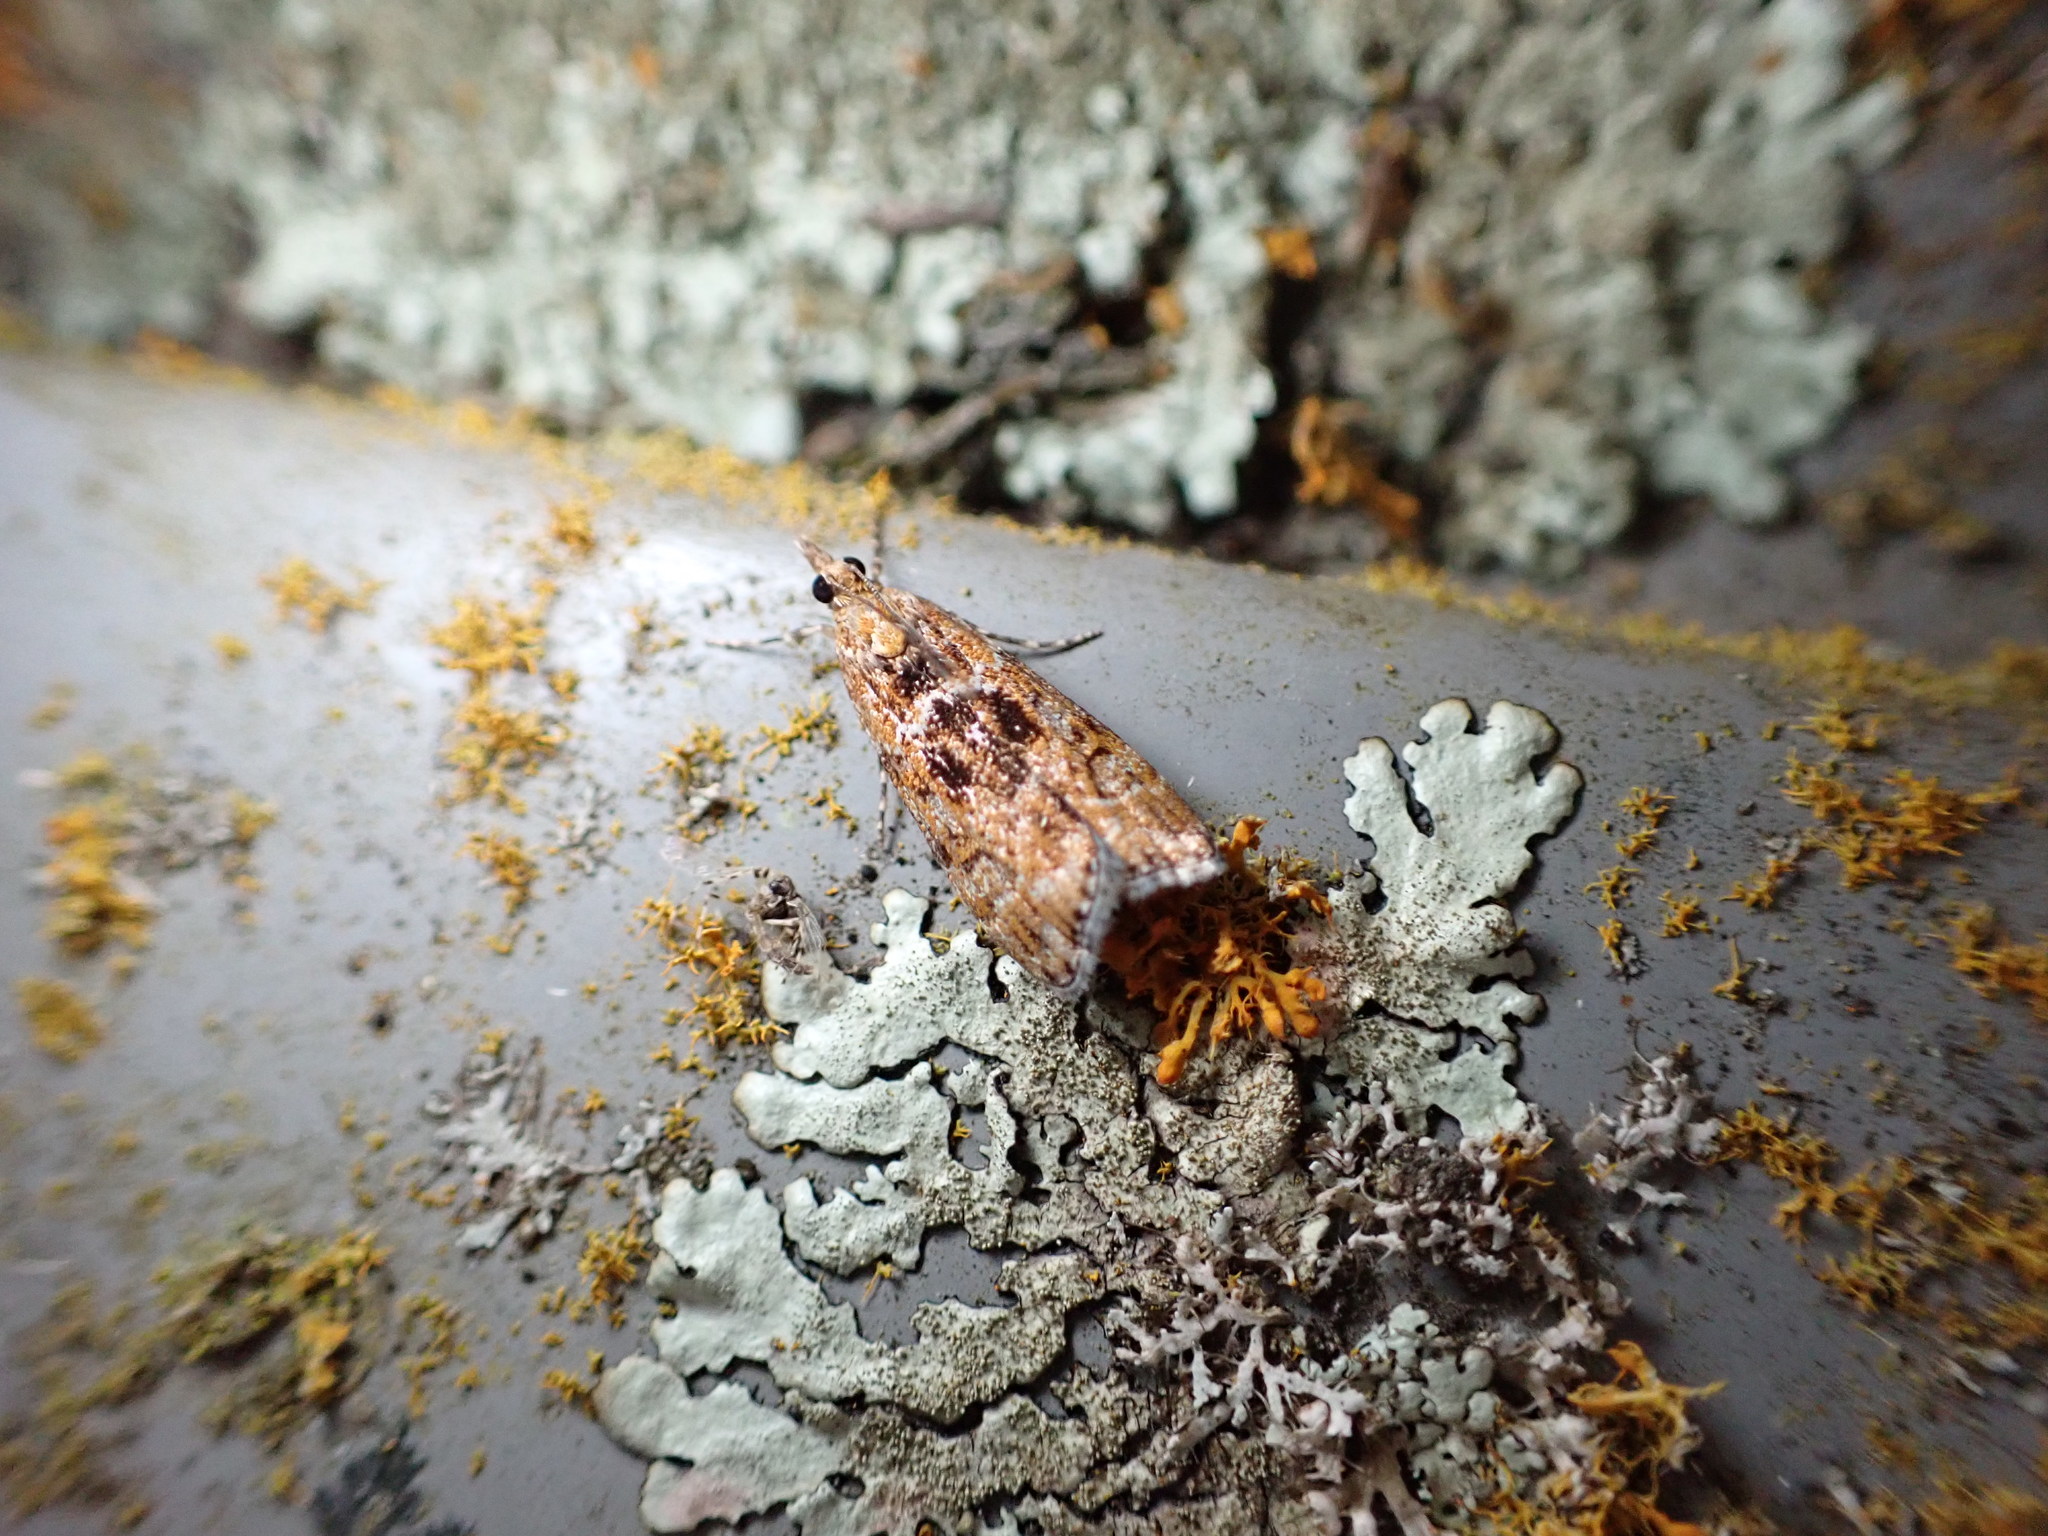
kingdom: Animalia
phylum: Arthropoda
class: Insecta
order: Lepidoptera
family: Crambidae
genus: Scoparia
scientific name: Scoparia animosa
